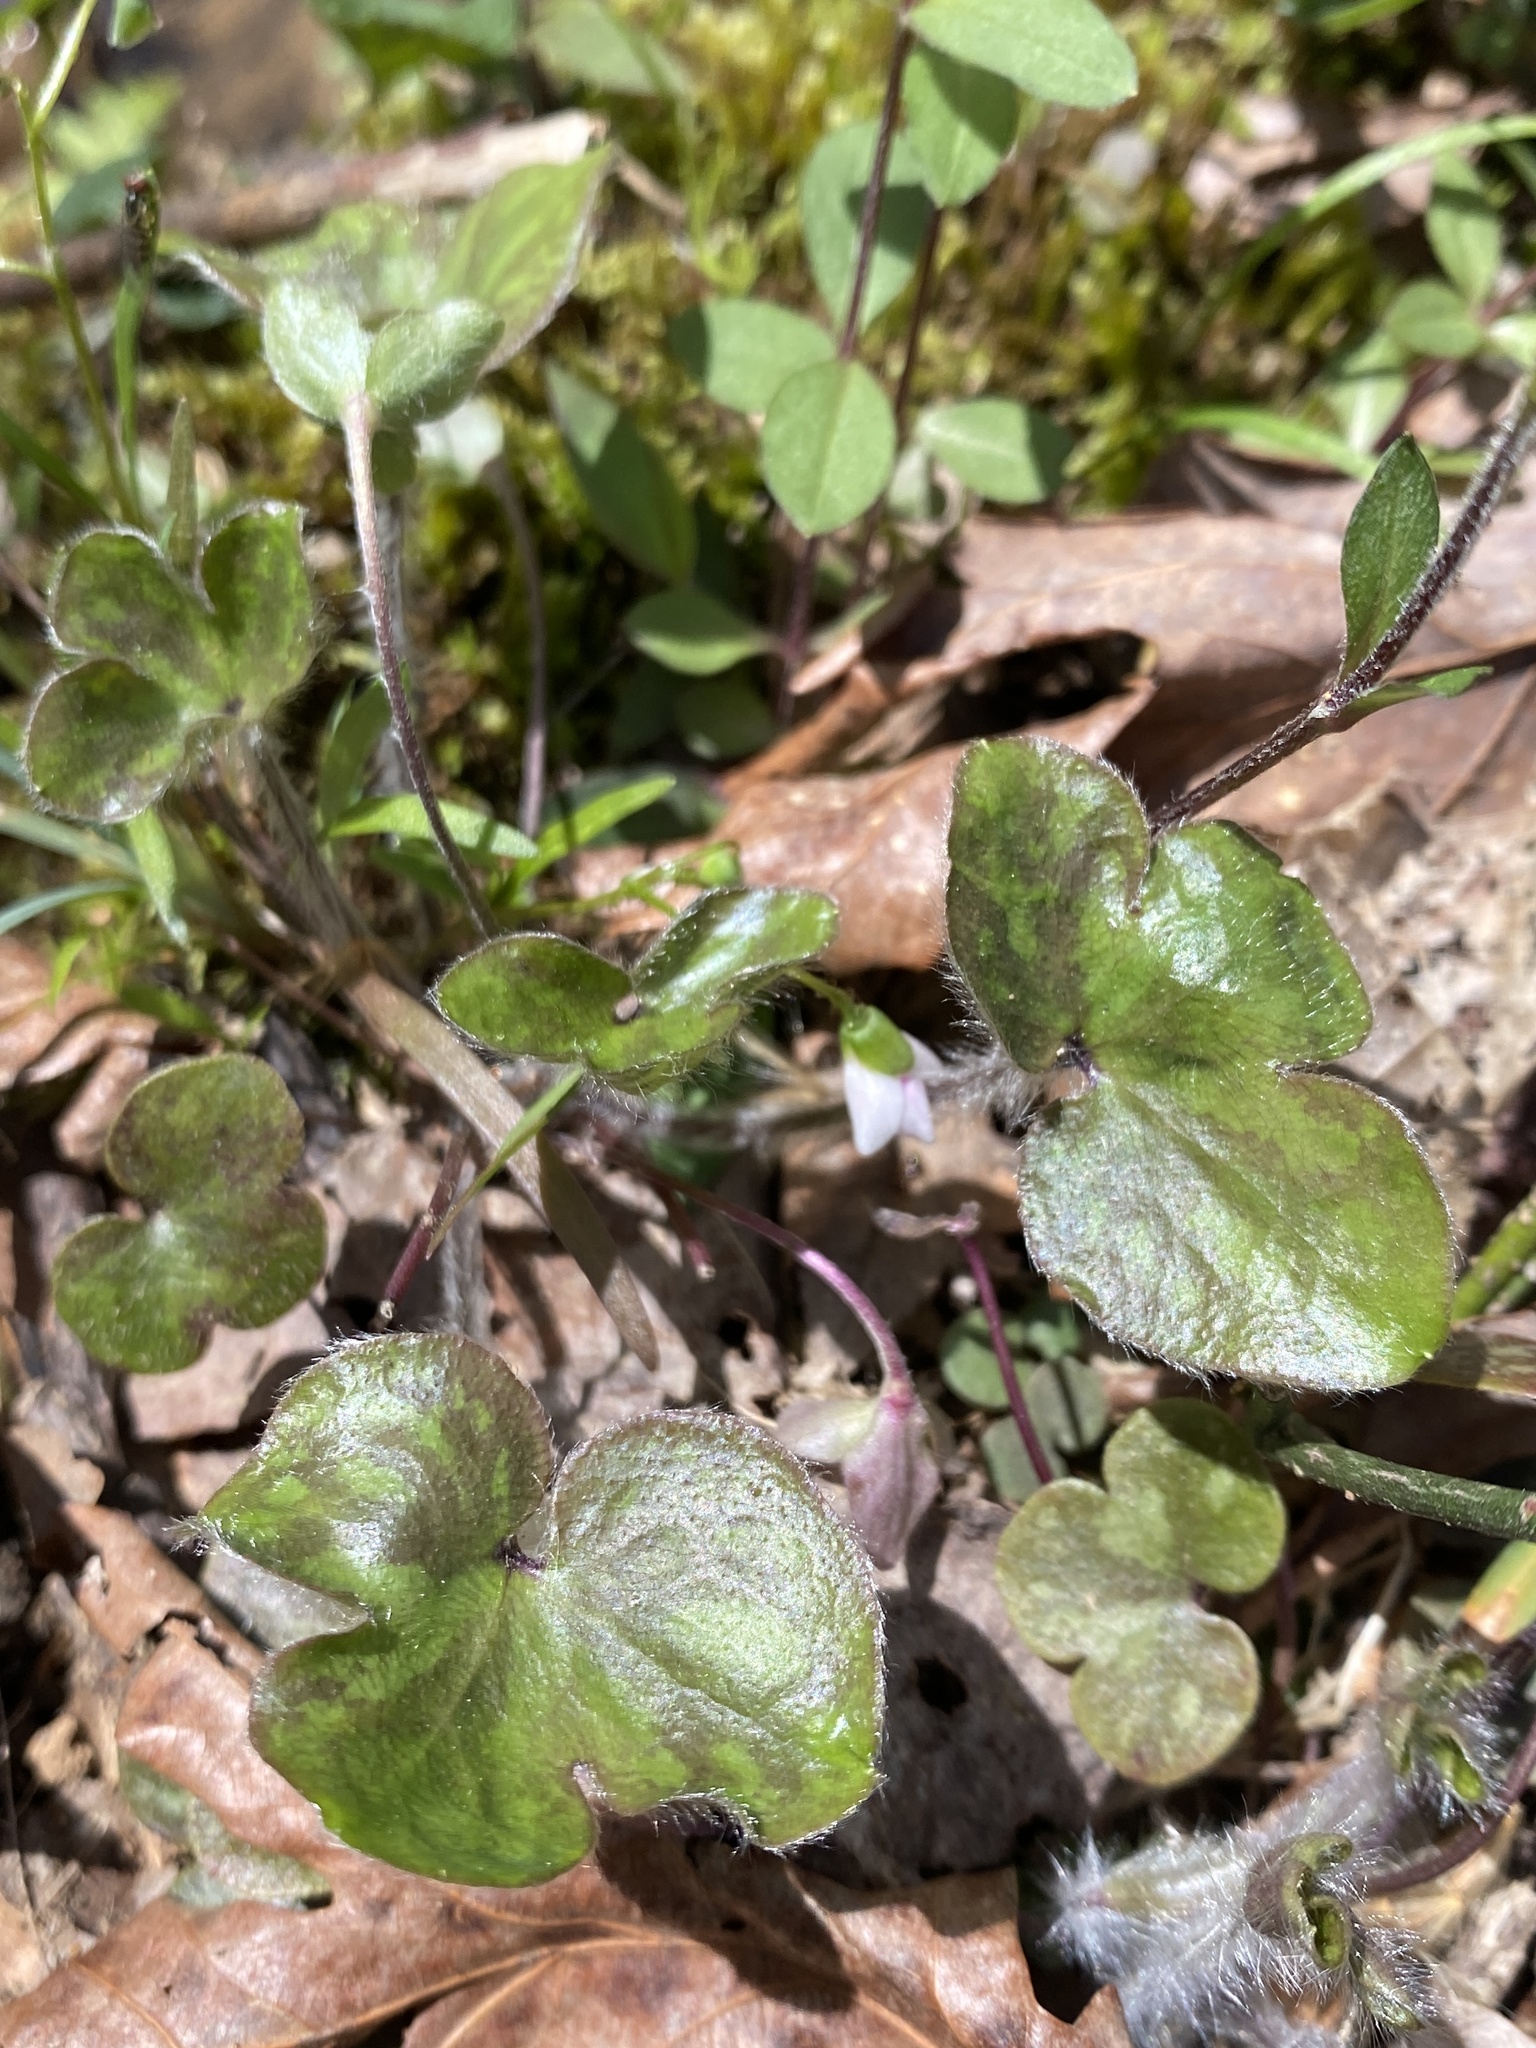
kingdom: Plantae
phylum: Tracheophyta
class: Magnoliopsida
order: Ranunculales
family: Ranunculaceae
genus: Hepatica
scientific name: Hepatica americana
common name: American hepatica
